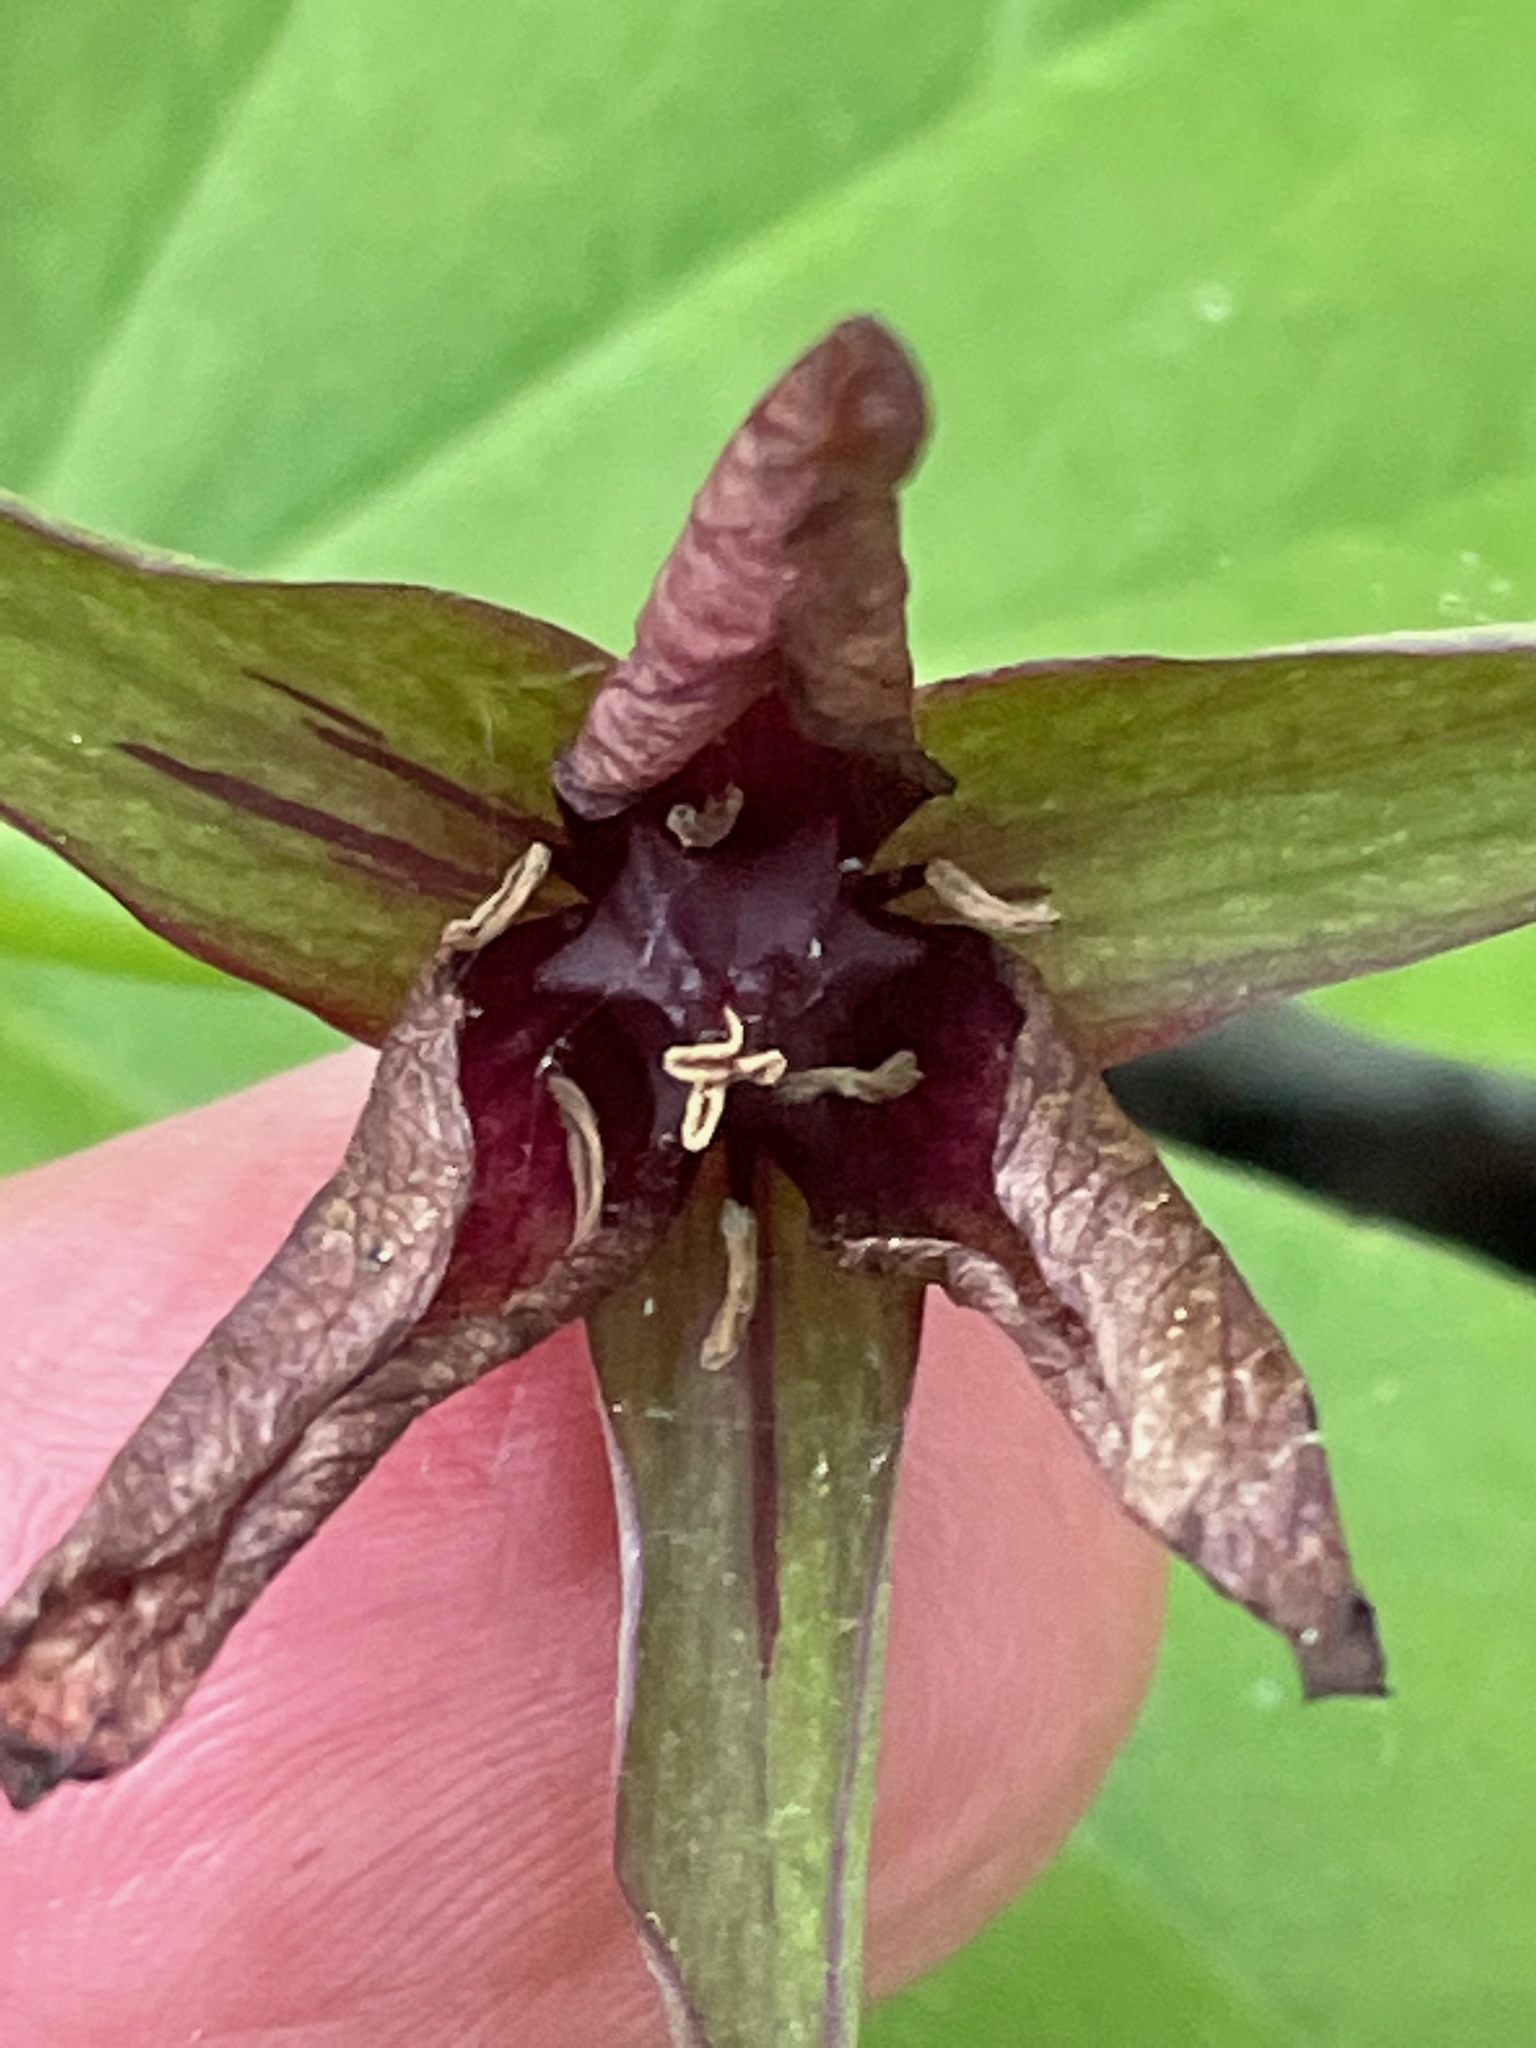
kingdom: Plantae
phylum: Tracheophyta
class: Liliopsida
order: Liliales
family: Melanthiaceae
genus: Trillium
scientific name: Trillium erectum
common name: Purple trillium
